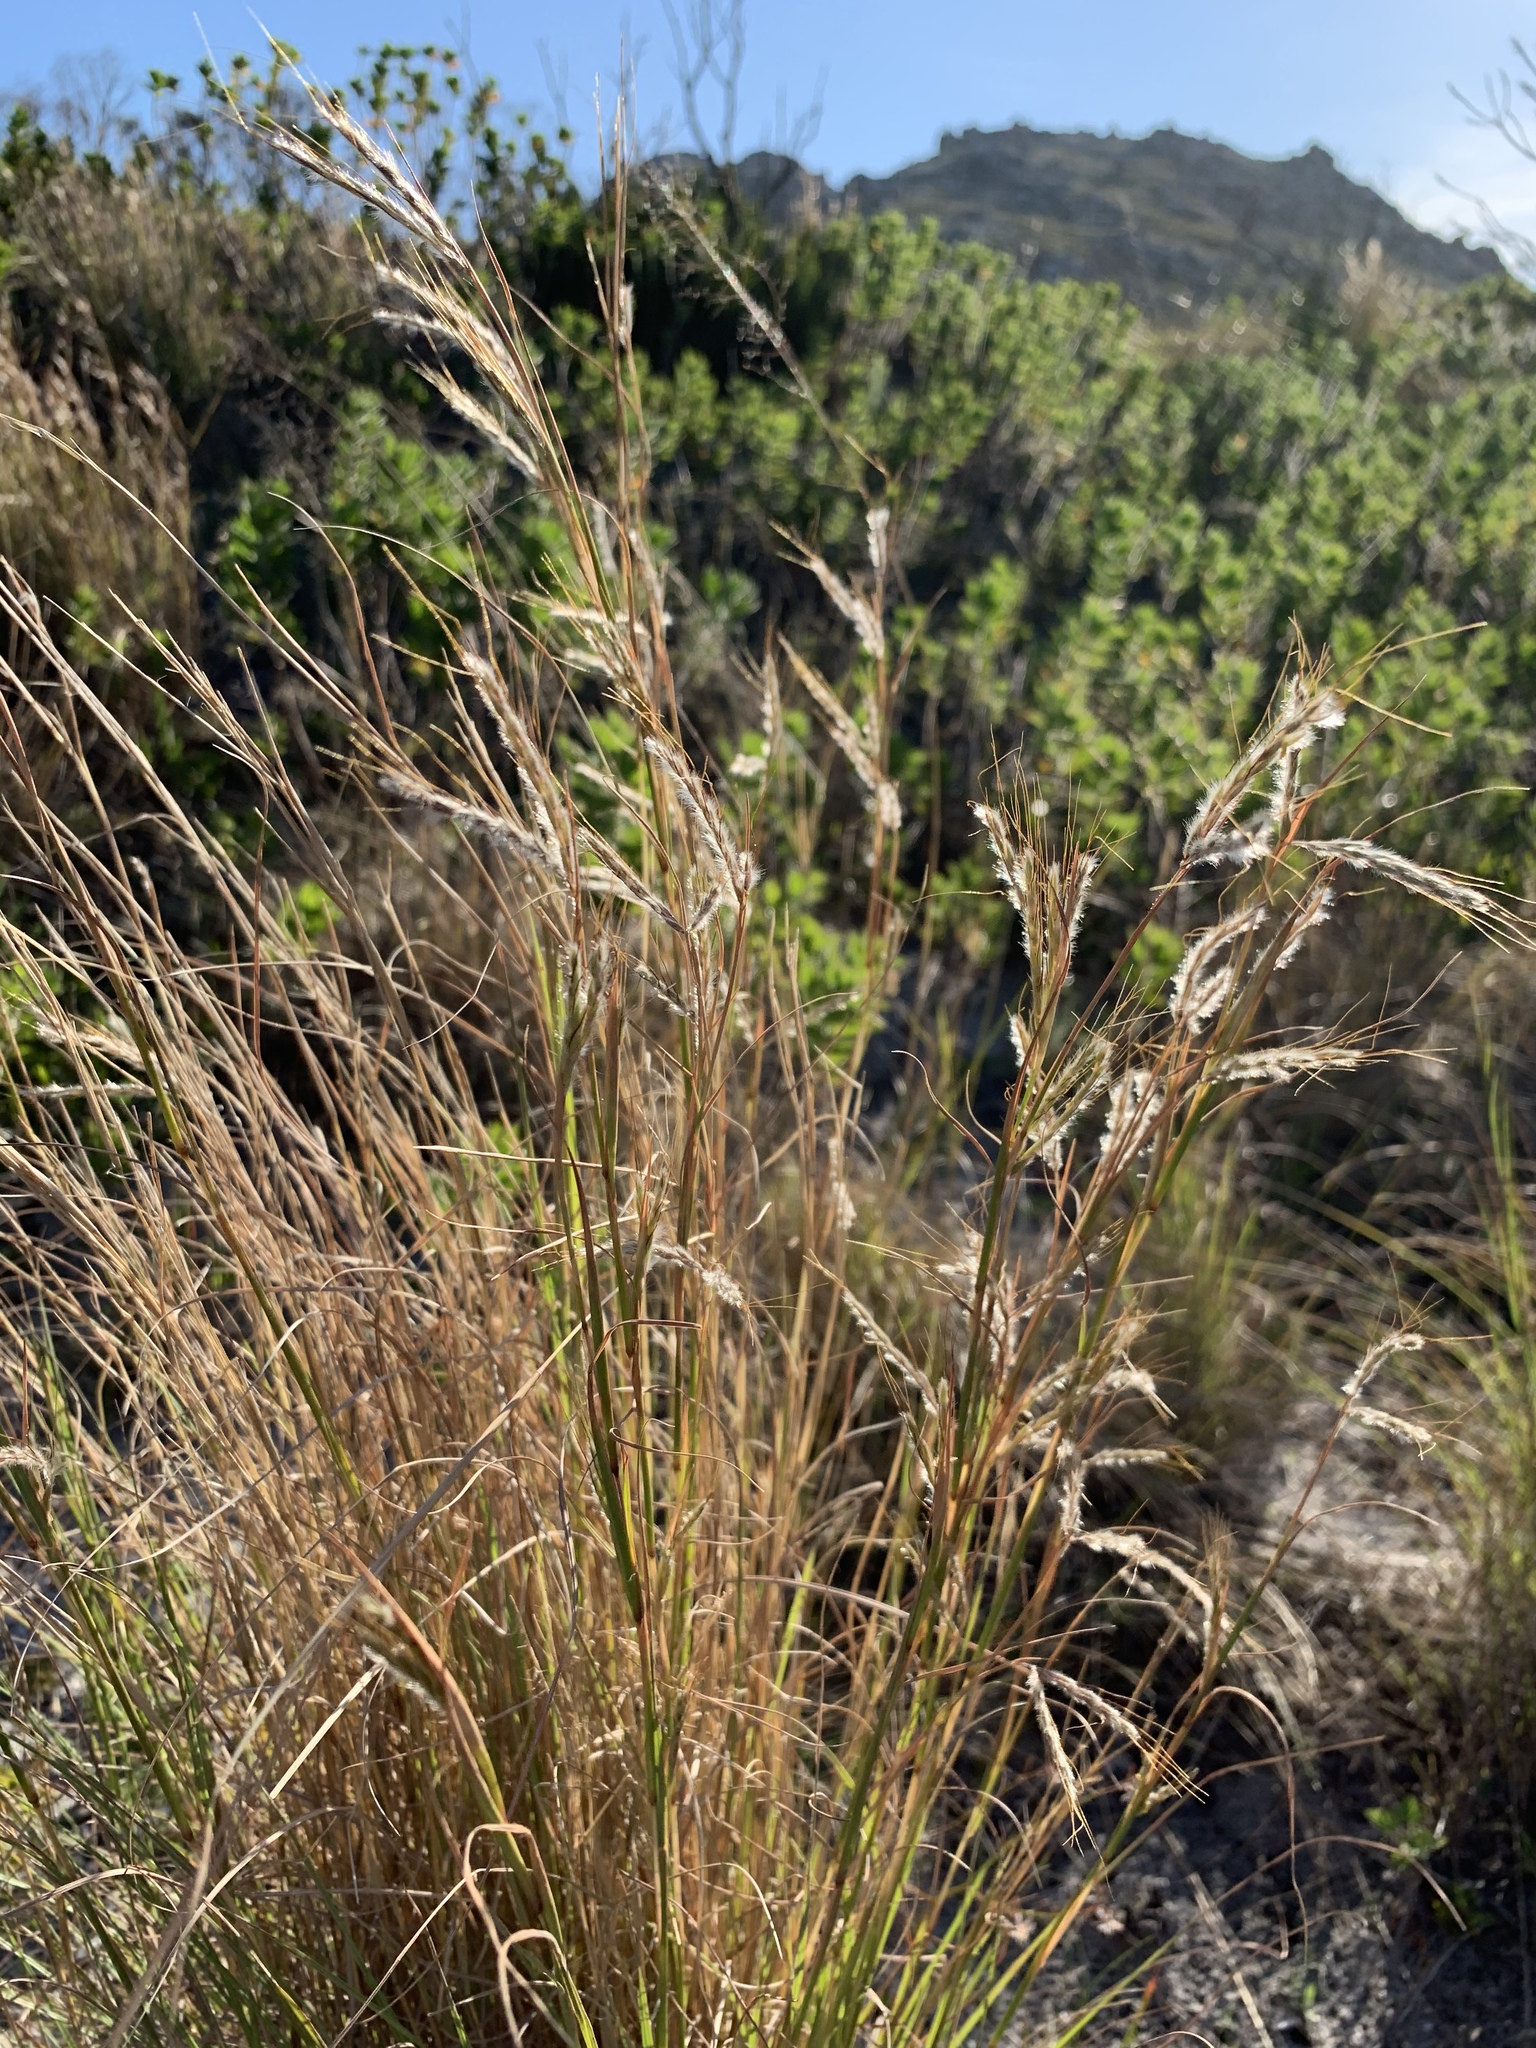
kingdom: Plantae
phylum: Tracheophyta
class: Liliopsida
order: Poales
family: Poaceae
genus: Hyparrhenia
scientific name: Hyparrhenia hirta
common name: Thatching grass
